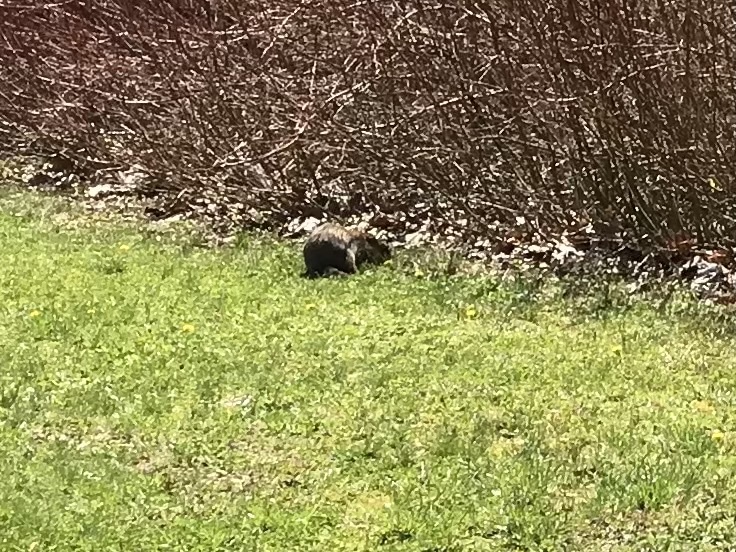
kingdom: Animalia
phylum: Chordata
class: Mammalia
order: Rodentia
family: Sciuridae
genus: Marmota
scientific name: Marmota monax
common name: Groundhog
